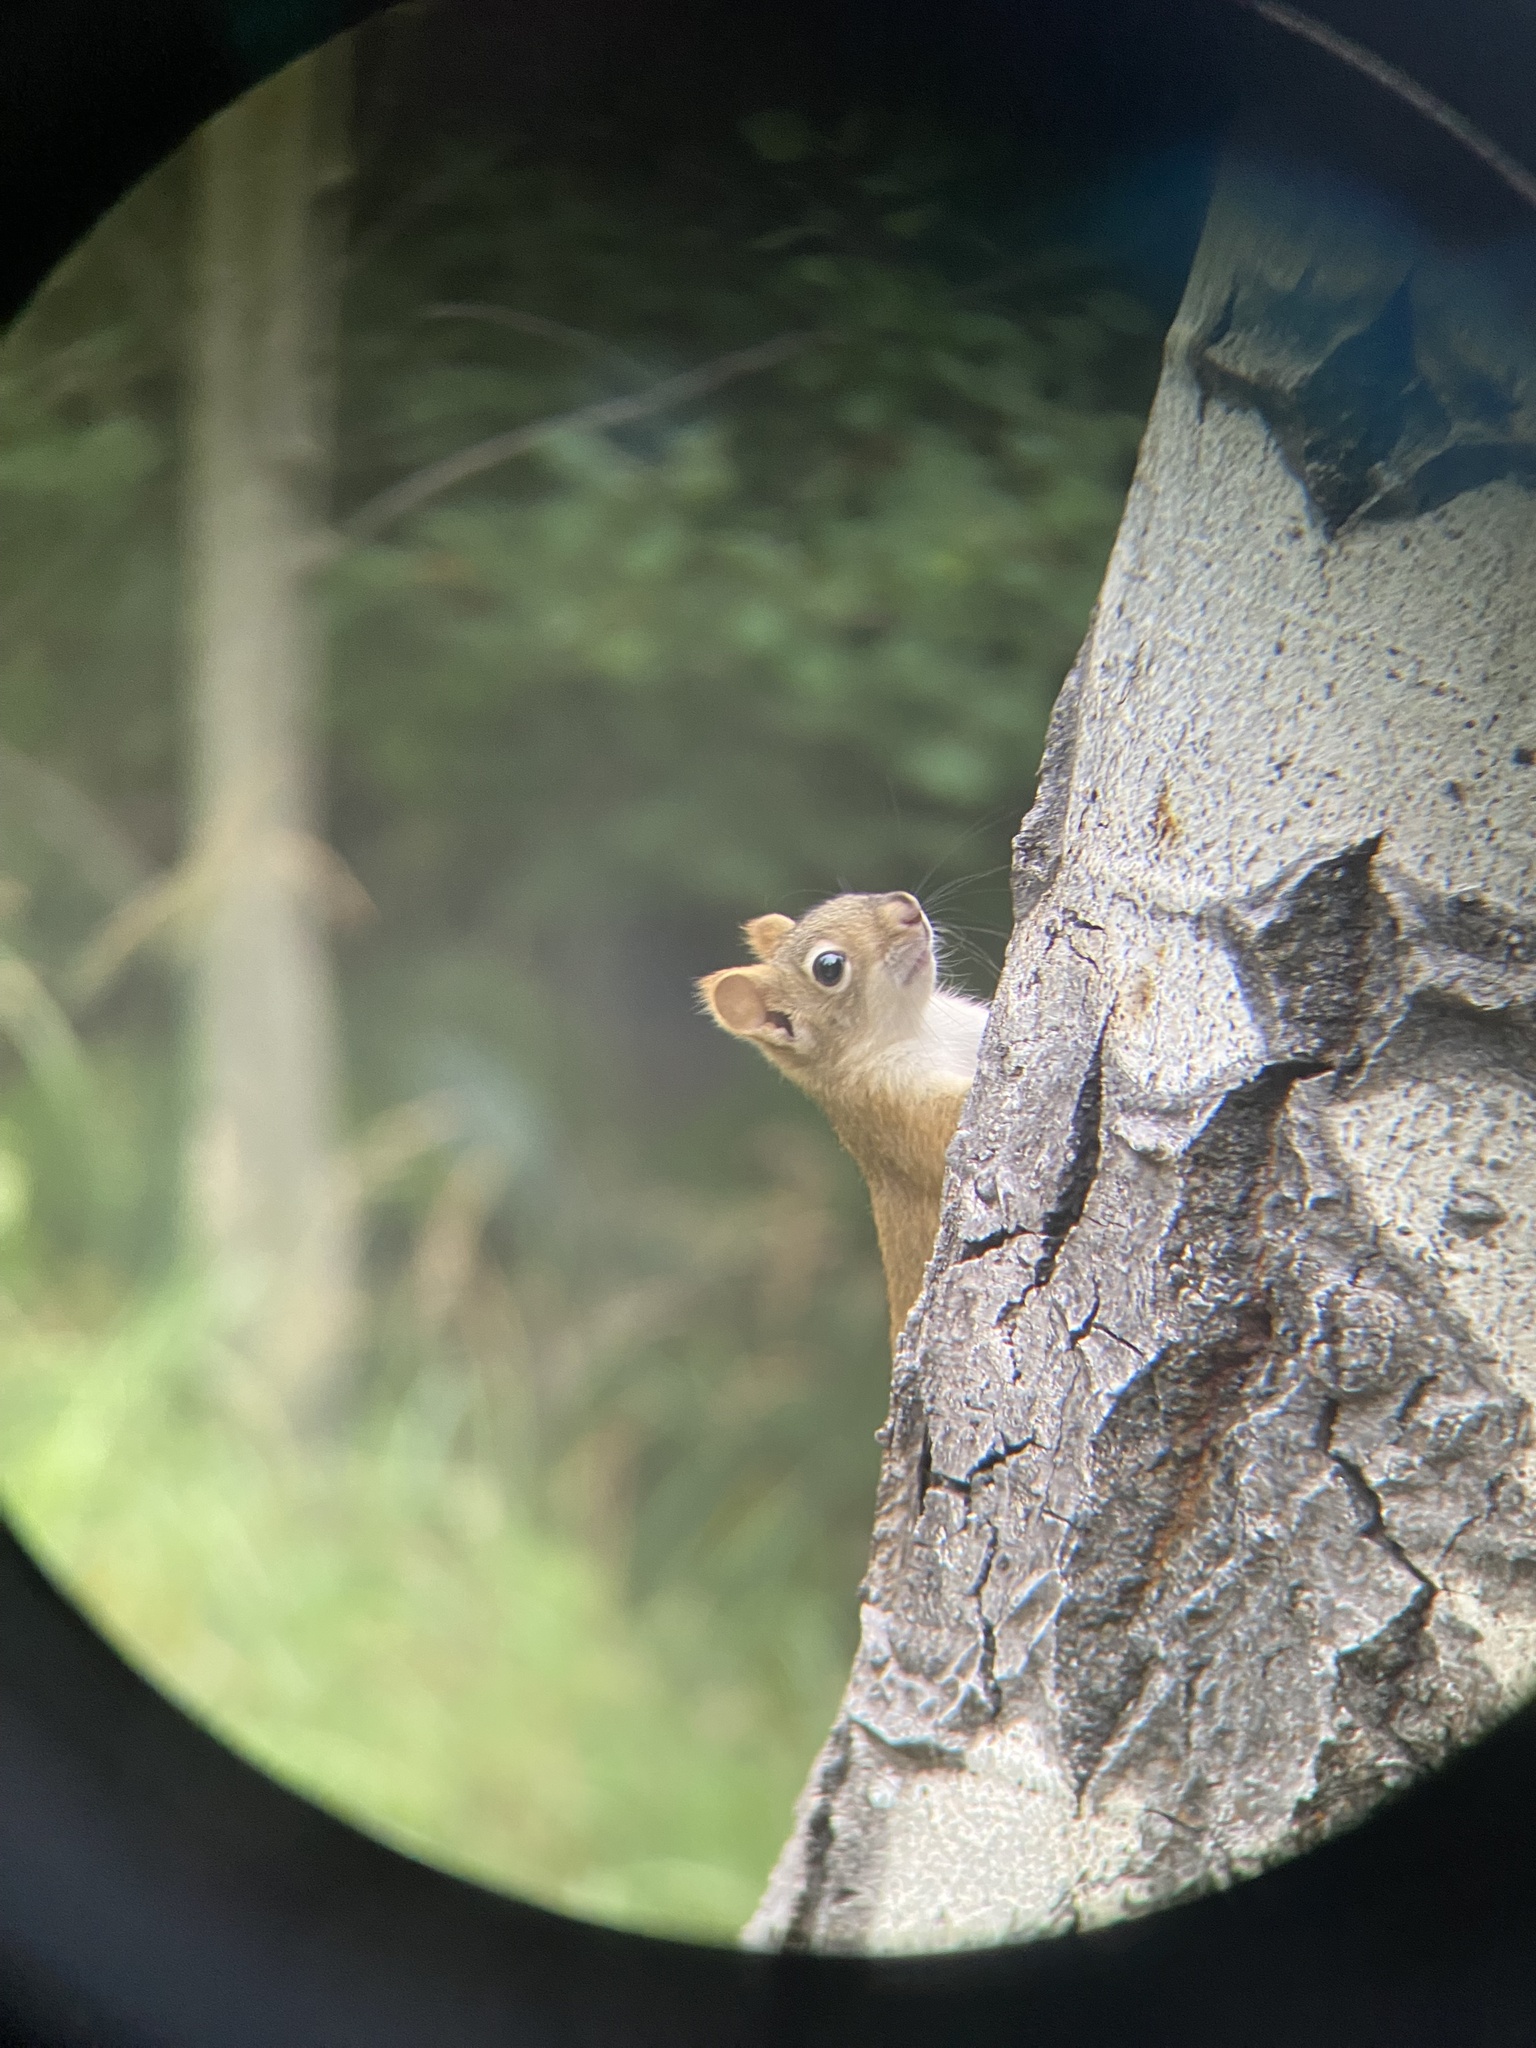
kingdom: Animalia
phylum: Chordata
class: Mammalia
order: Rodentia
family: Sciuridae
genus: Tamiasciurus
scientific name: Tamiasciurus hudsonicus
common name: Red squirrel
